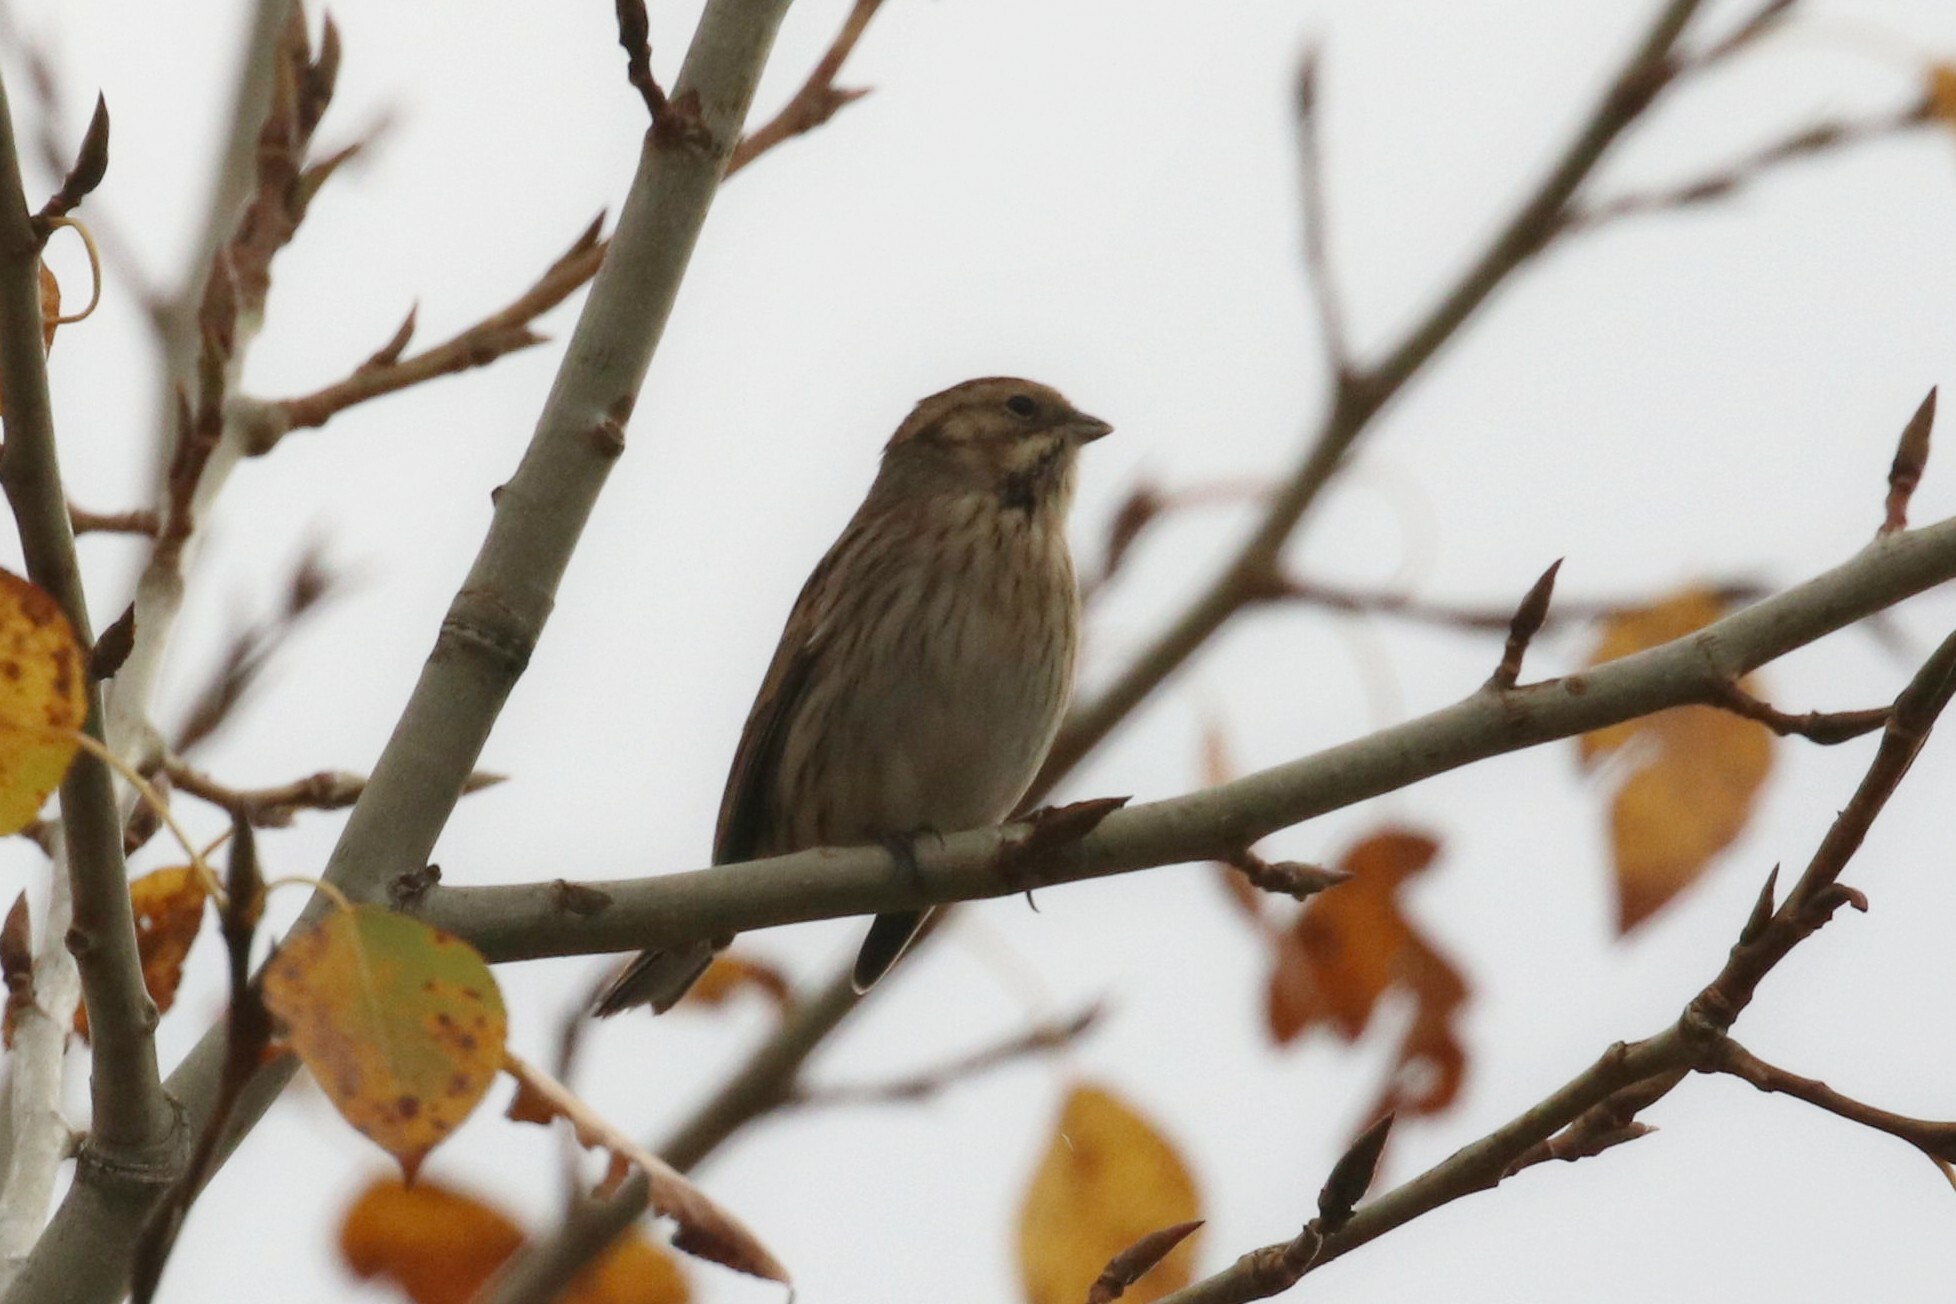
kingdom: Animalia
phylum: Chordata
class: Aves
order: Passeriformes
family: Emberizidae
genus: Emberiza
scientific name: Emberiza schoeniclus
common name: Reed bunting
